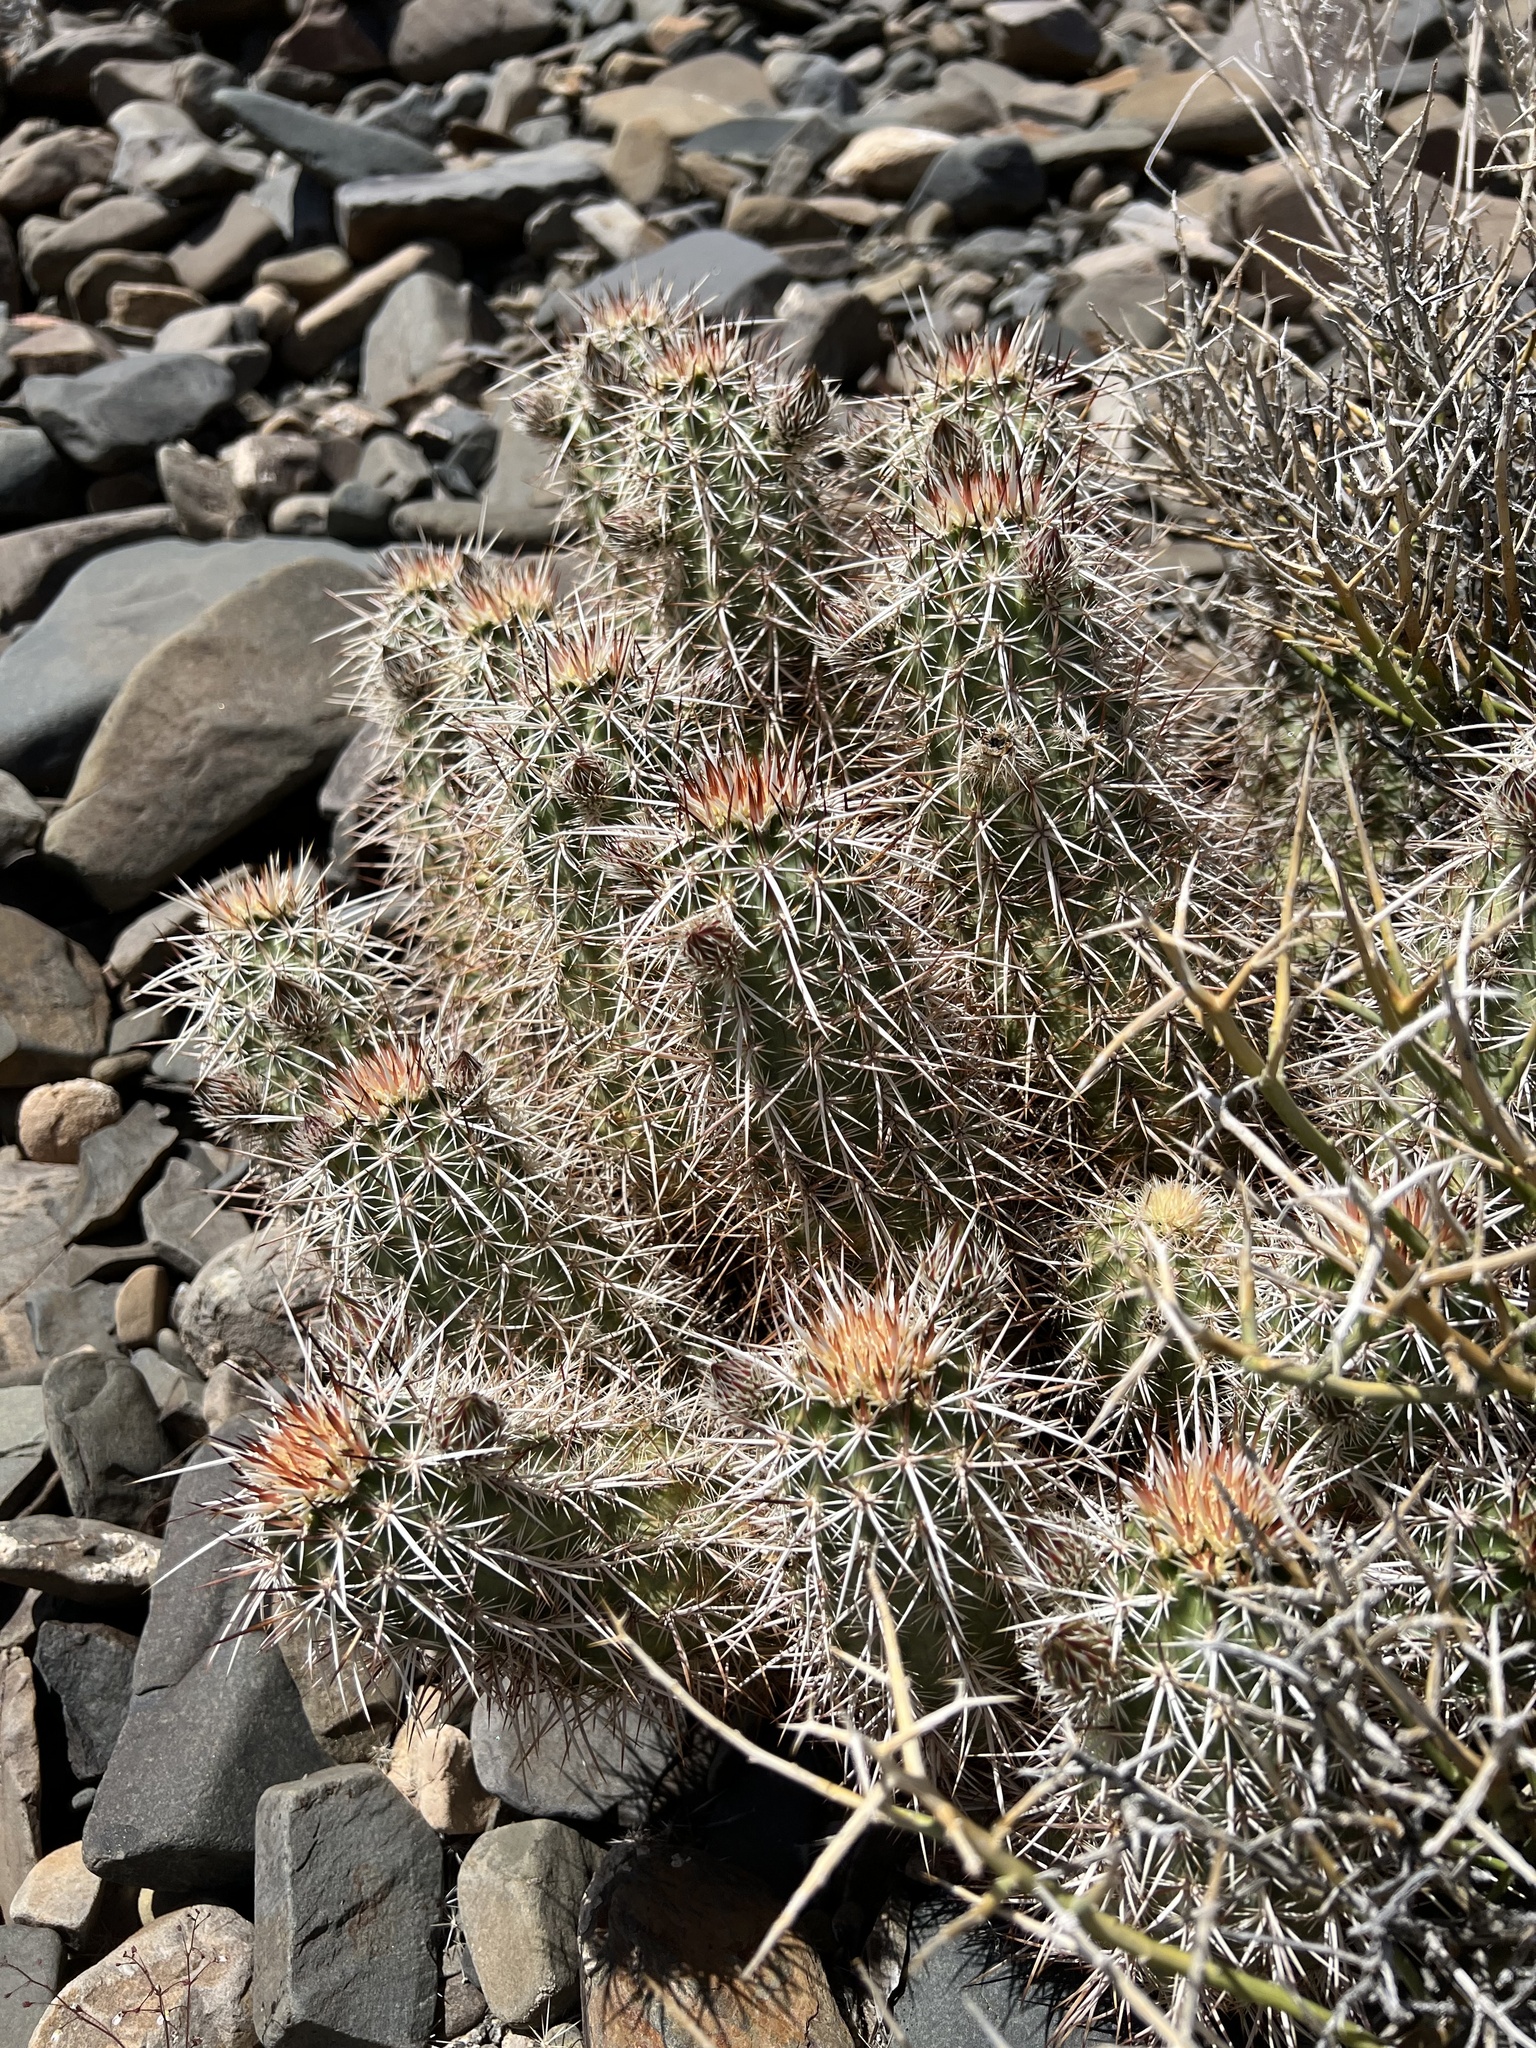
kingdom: Plantae
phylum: Tracheophyta
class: Magnoliopsida
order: Caryophyllales
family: Cactaceae
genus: Echinocereus
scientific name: Echinocereus engelmannii
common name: Engelmann's hedgehog cactus
